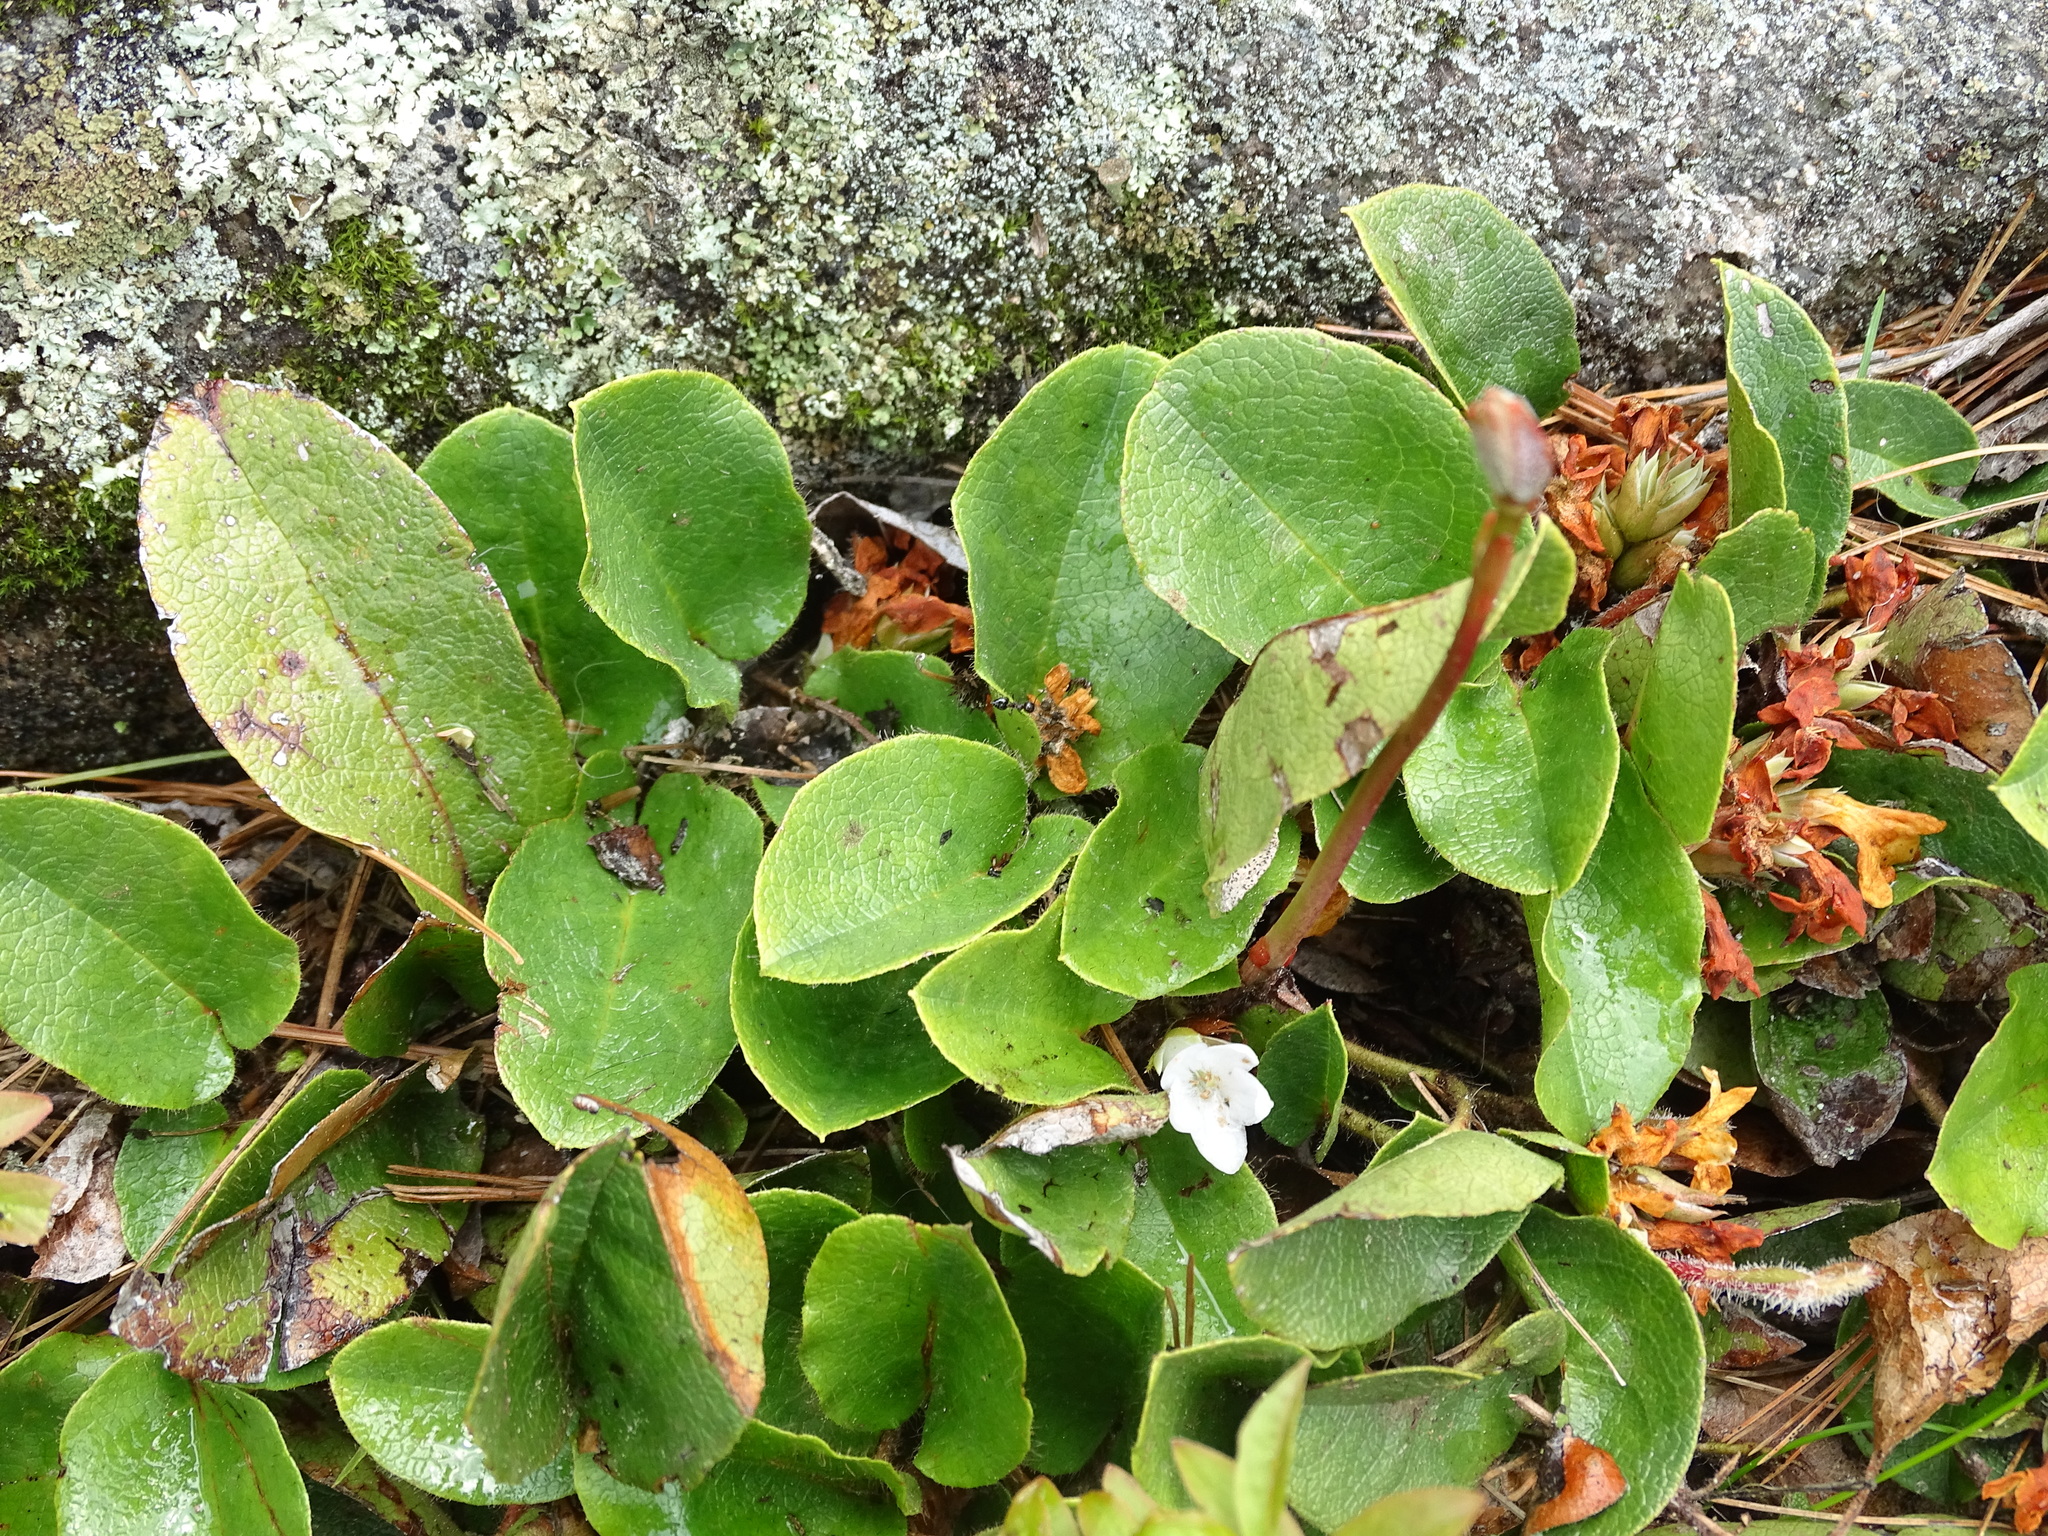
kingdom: Plantae
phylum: Tracheophyta
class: Magnoliopsida
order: Ericales
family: Ericaceae
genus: Epigaea
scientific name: Epigaea repens
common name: Gravelroot
